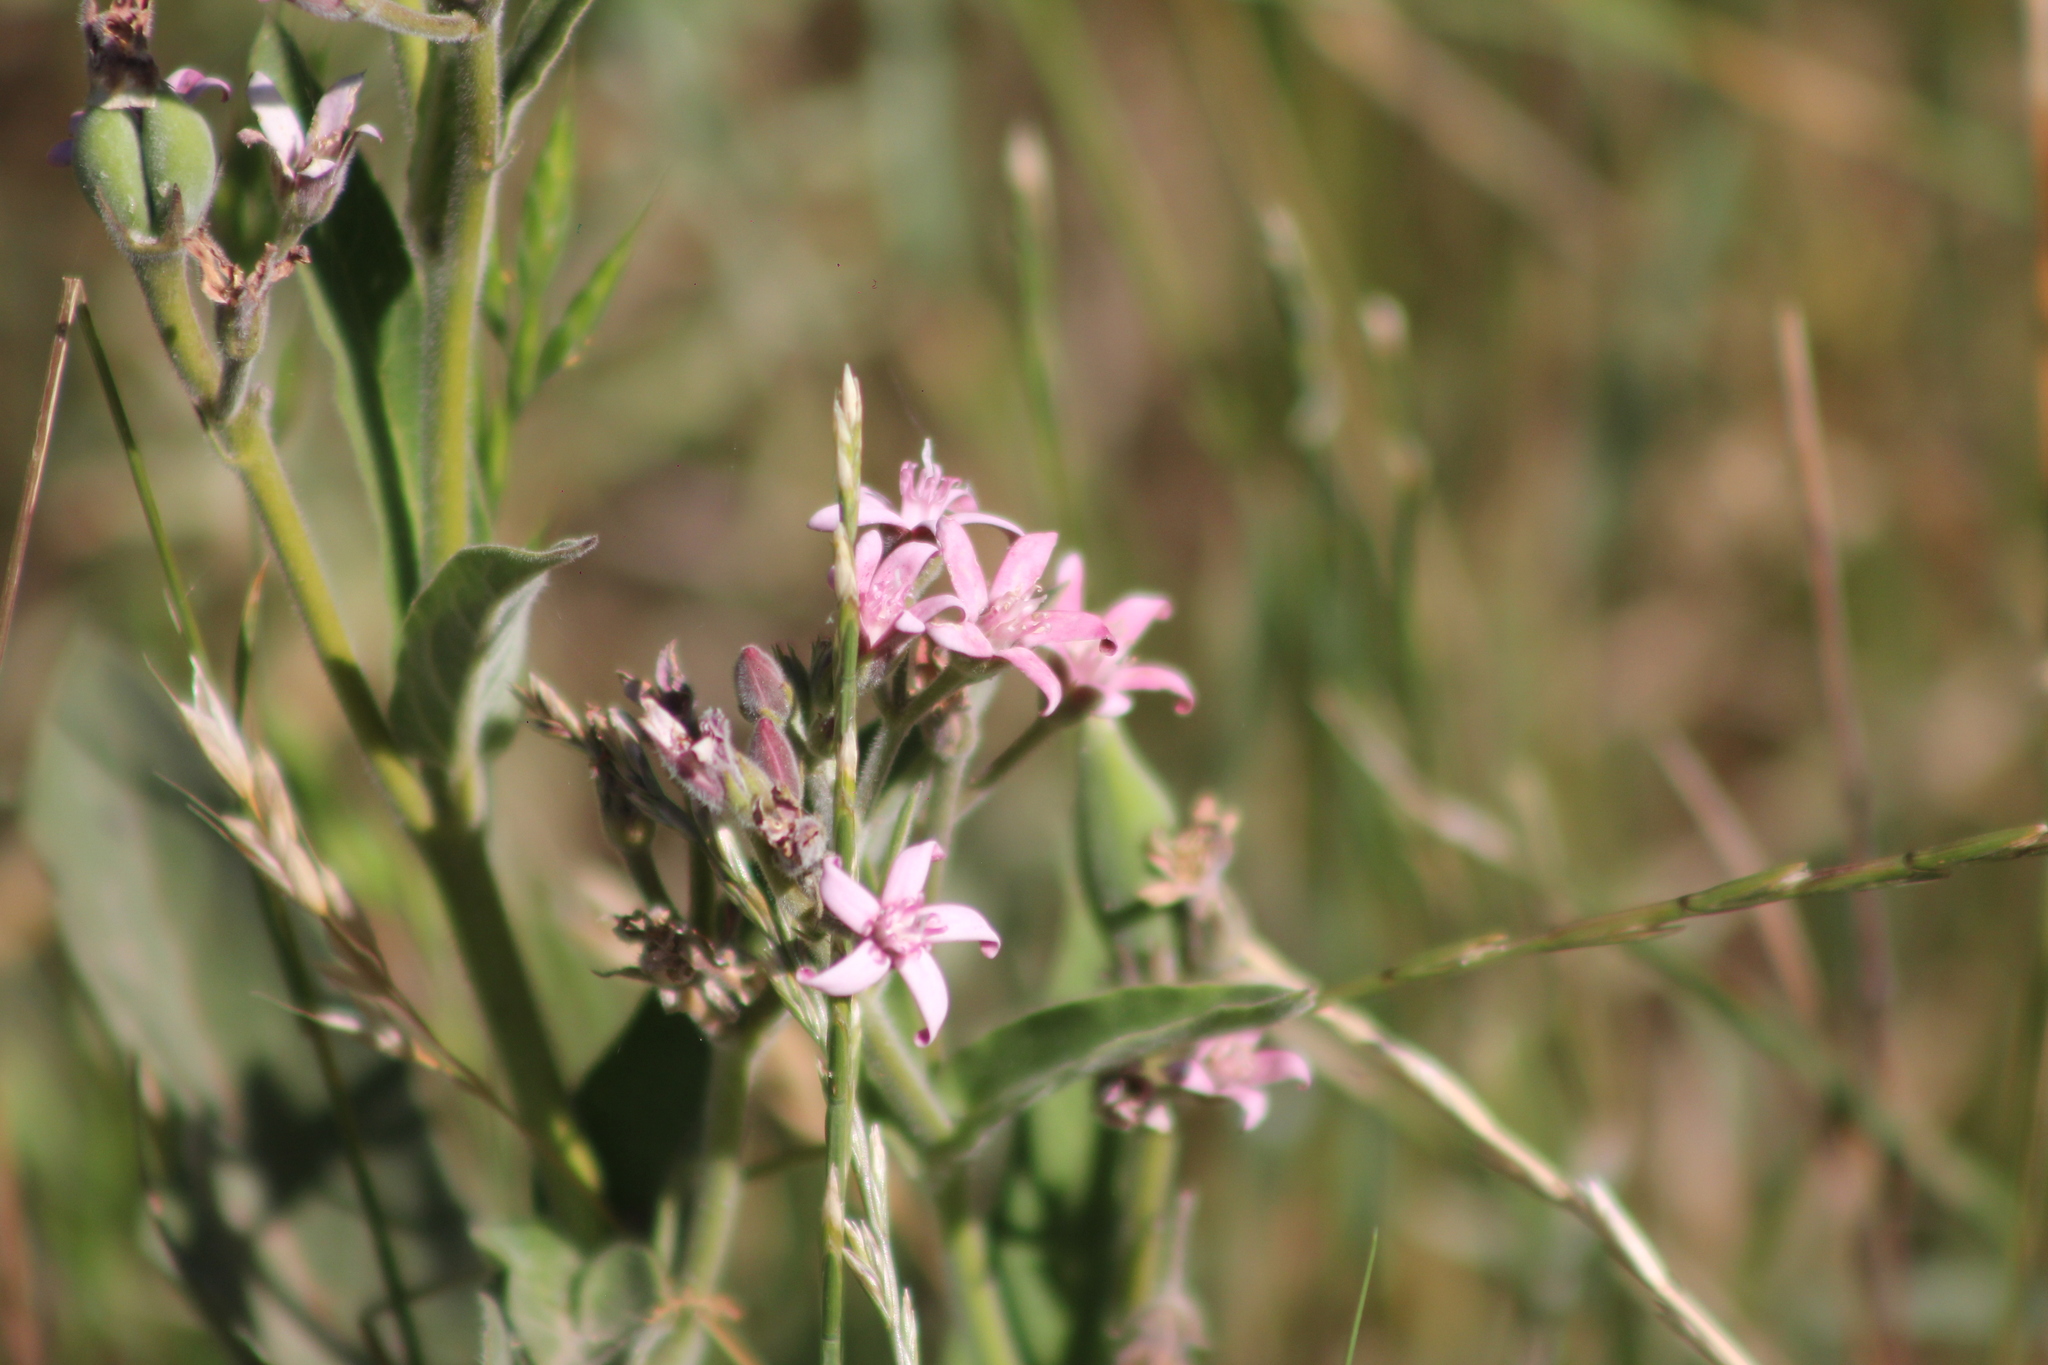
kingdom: Plantae
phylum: Tracheophyta
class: Magnoliopsida
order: Gentianales
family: Apocynaceae
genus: Oxypetalum
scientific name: Oxypetalum solanoides
